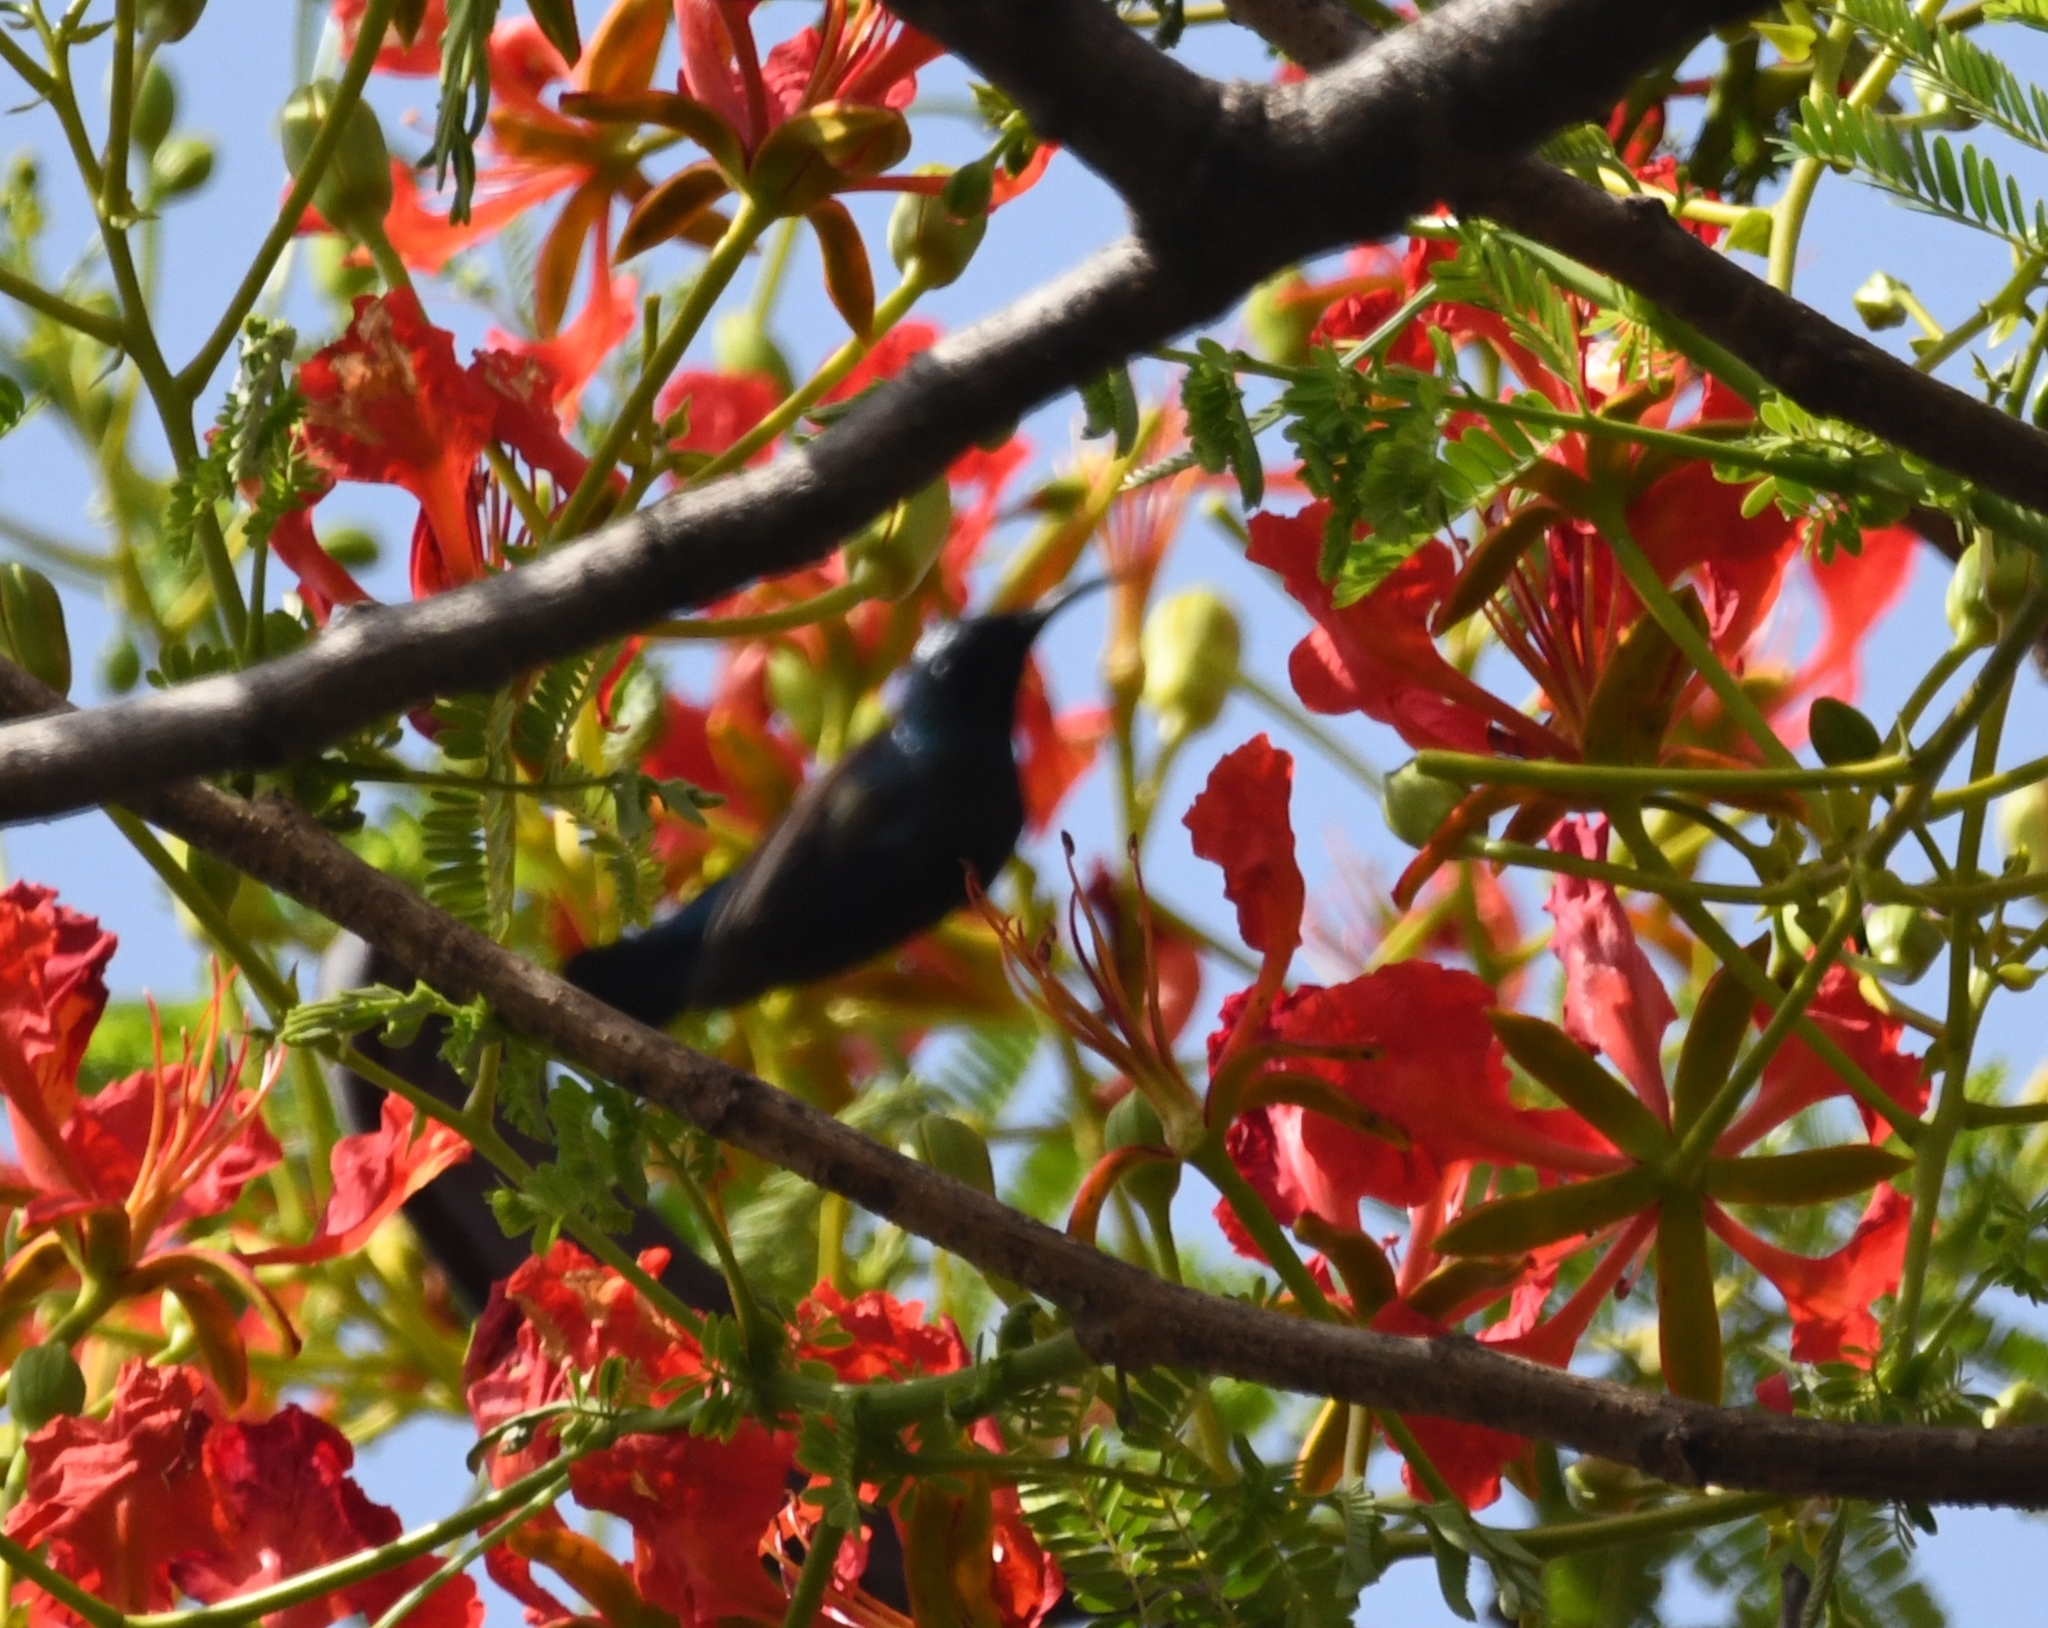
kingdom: Animalia
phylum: Chordata
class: Aves
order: Passeriformes
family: Nectariniidae
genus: Cinnyris
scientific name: Cinnyris asiaticus
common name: Purple sunbird
